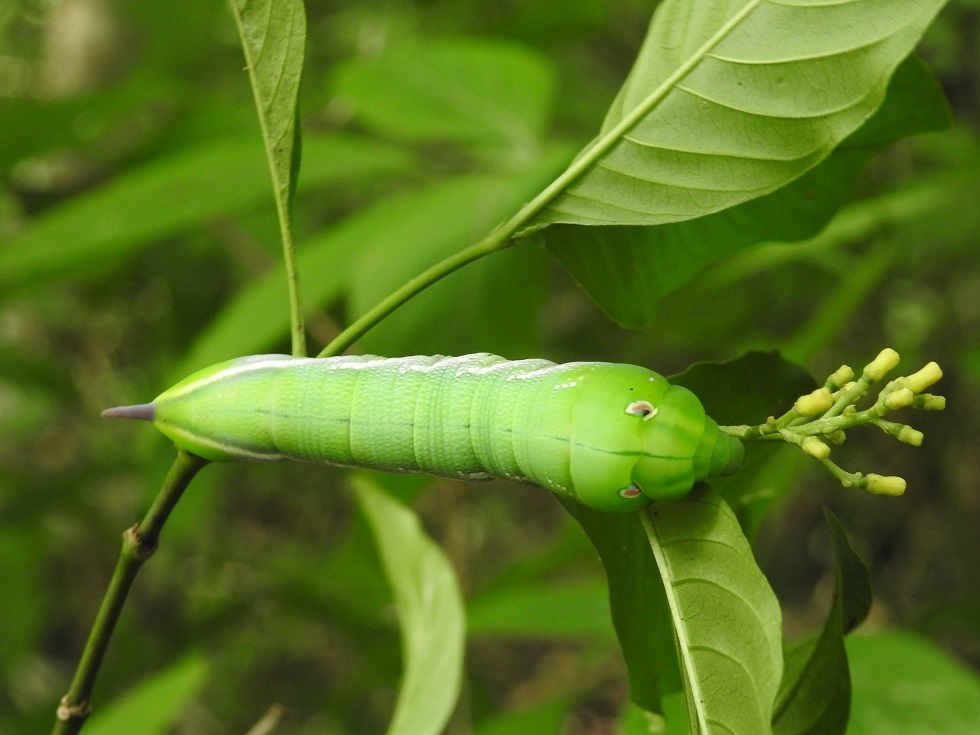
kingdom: Animalia
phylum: Arthropoda
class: Insecta
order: Lepidoptera
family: Sphingidae
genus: Xylophanes
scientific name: Xylophanes pluto
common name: Pluto sphinx
